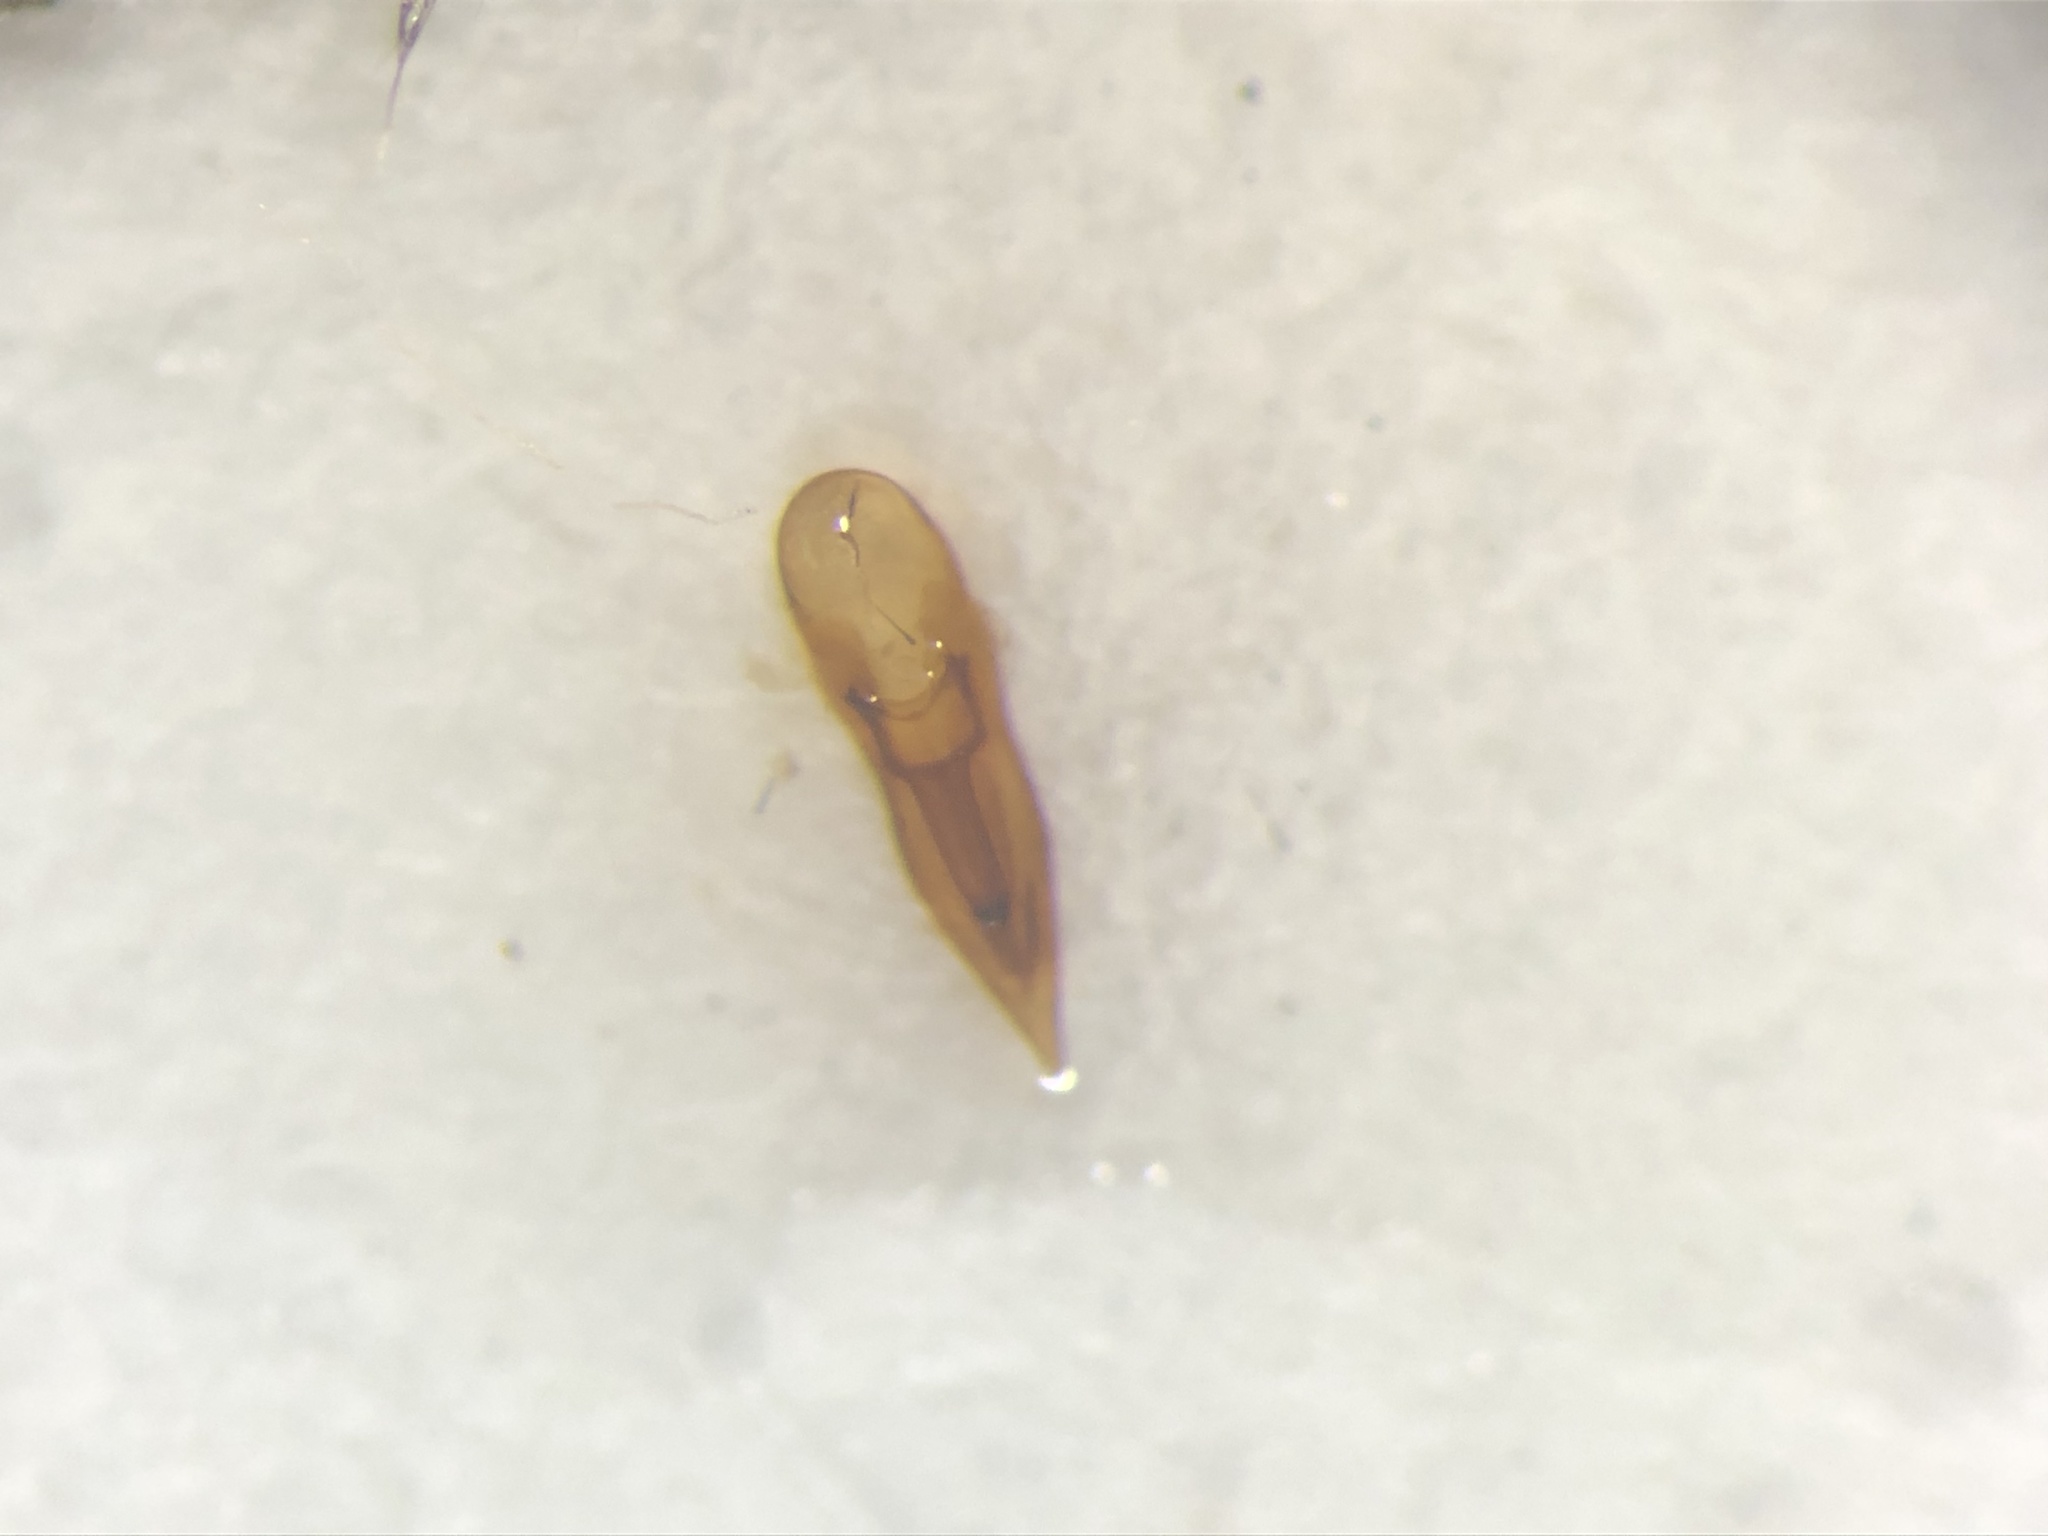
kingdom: Animalia
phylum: Arthropoda
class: Insecta
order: Coleoptera
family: Staphylinidae
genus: Philonthus
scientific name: Philonthus lindrothi
